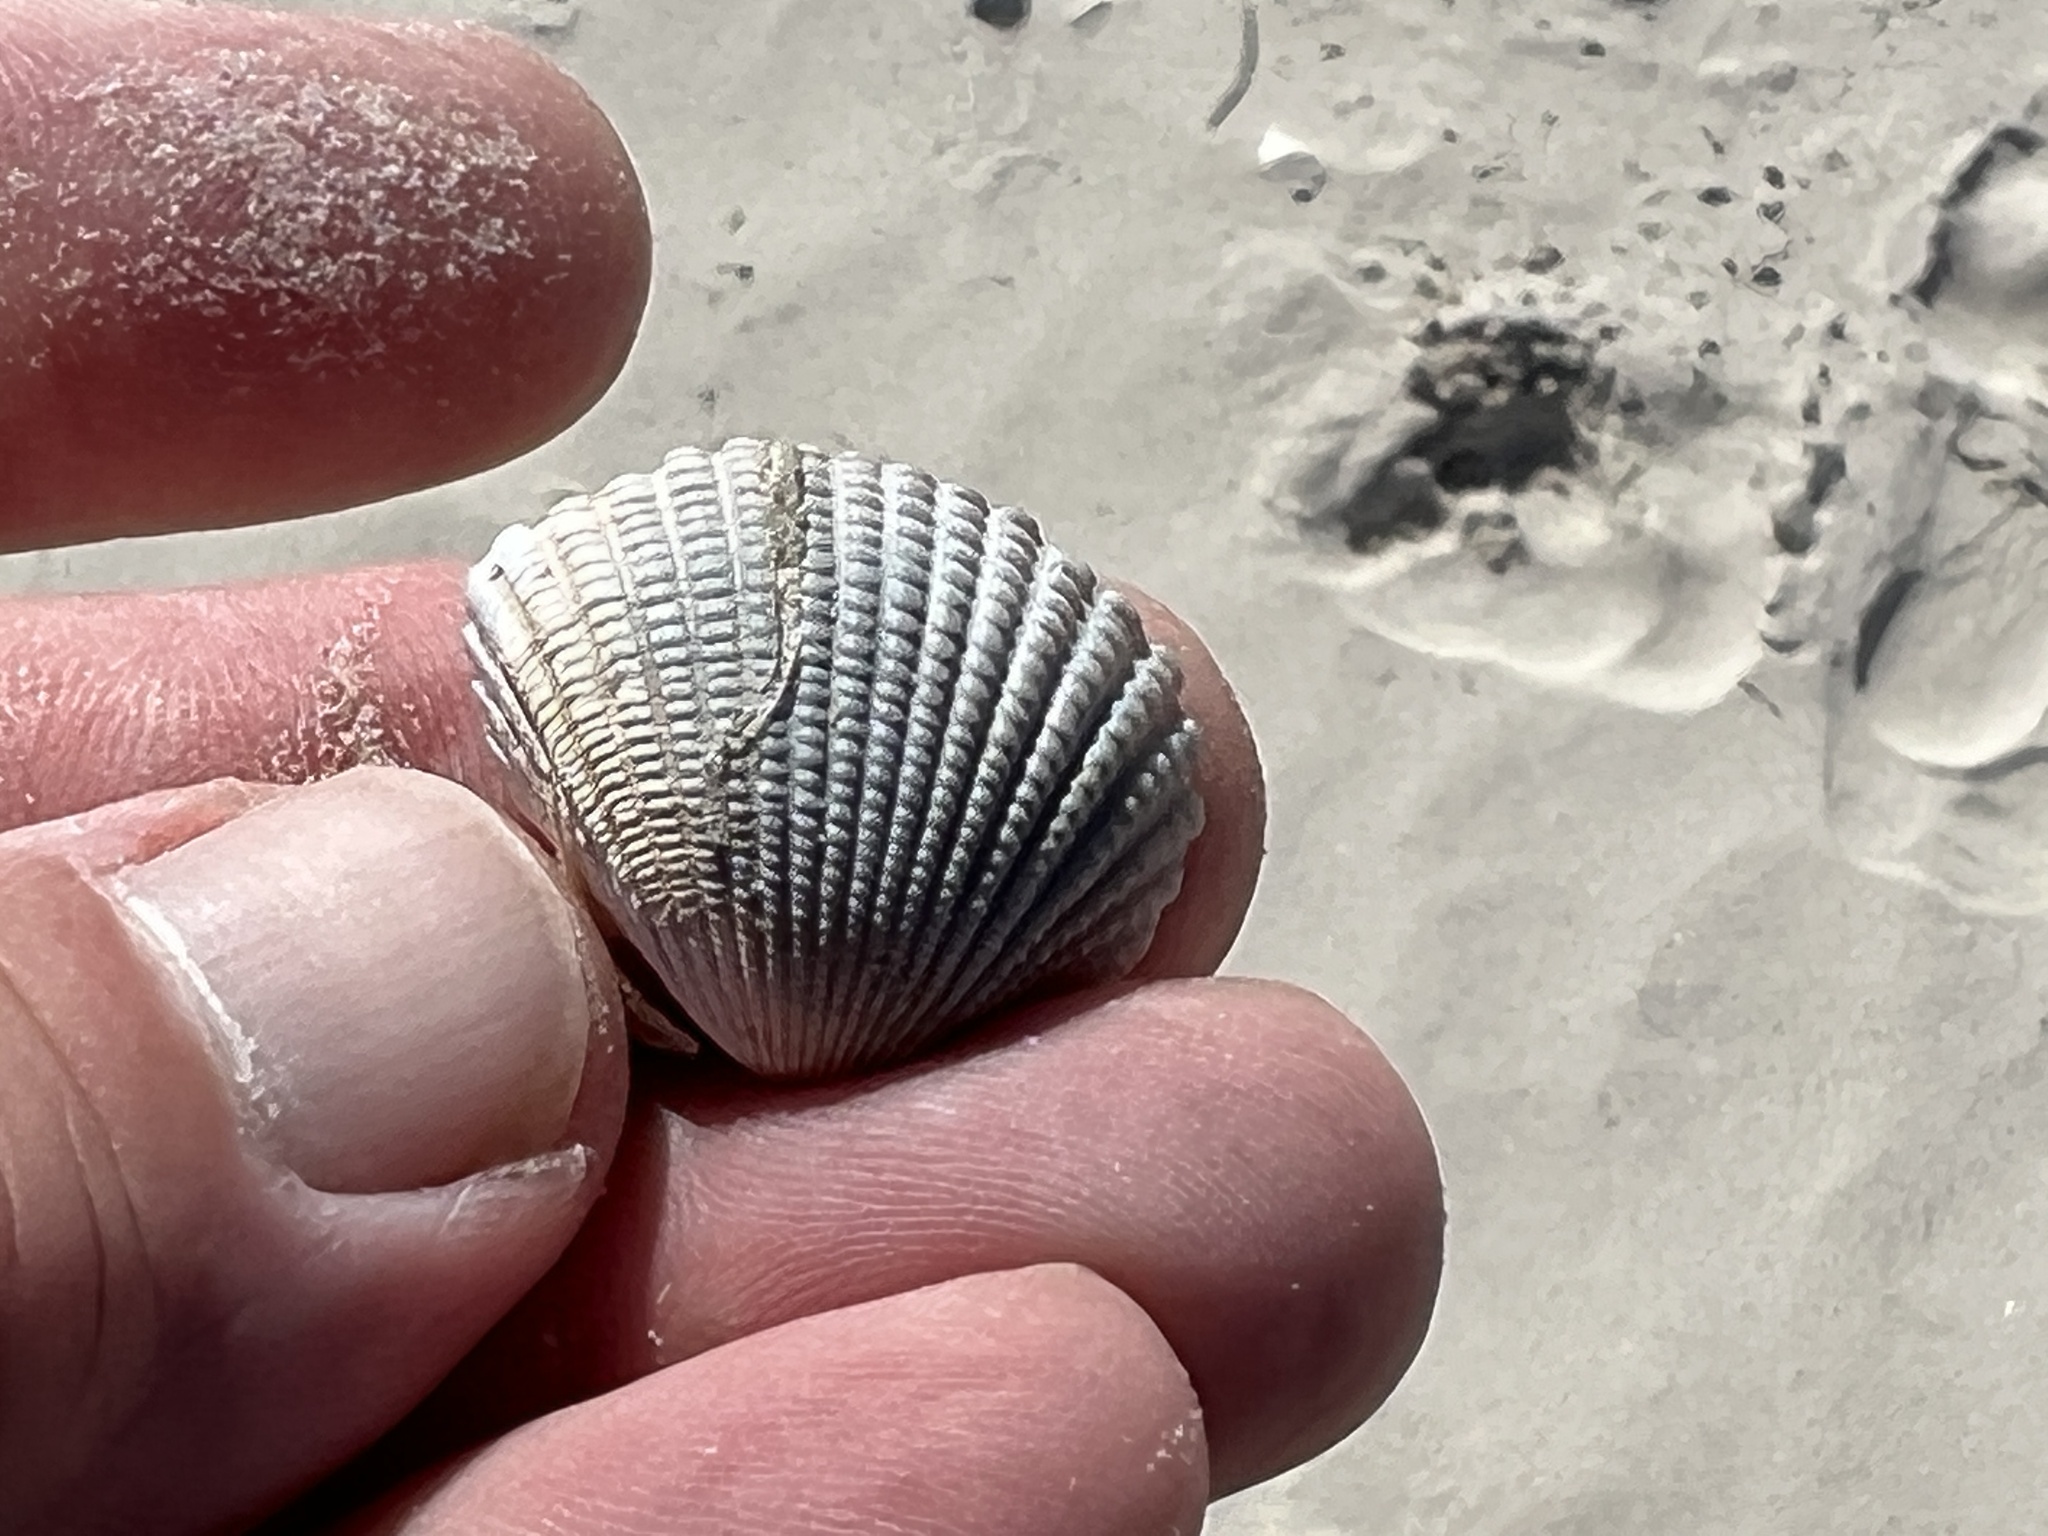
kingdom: Animalia
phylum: Mollusca
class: Bivalvia
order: Arcida
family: Arcidae
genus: Anadara
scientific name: Anadara brasiliana
